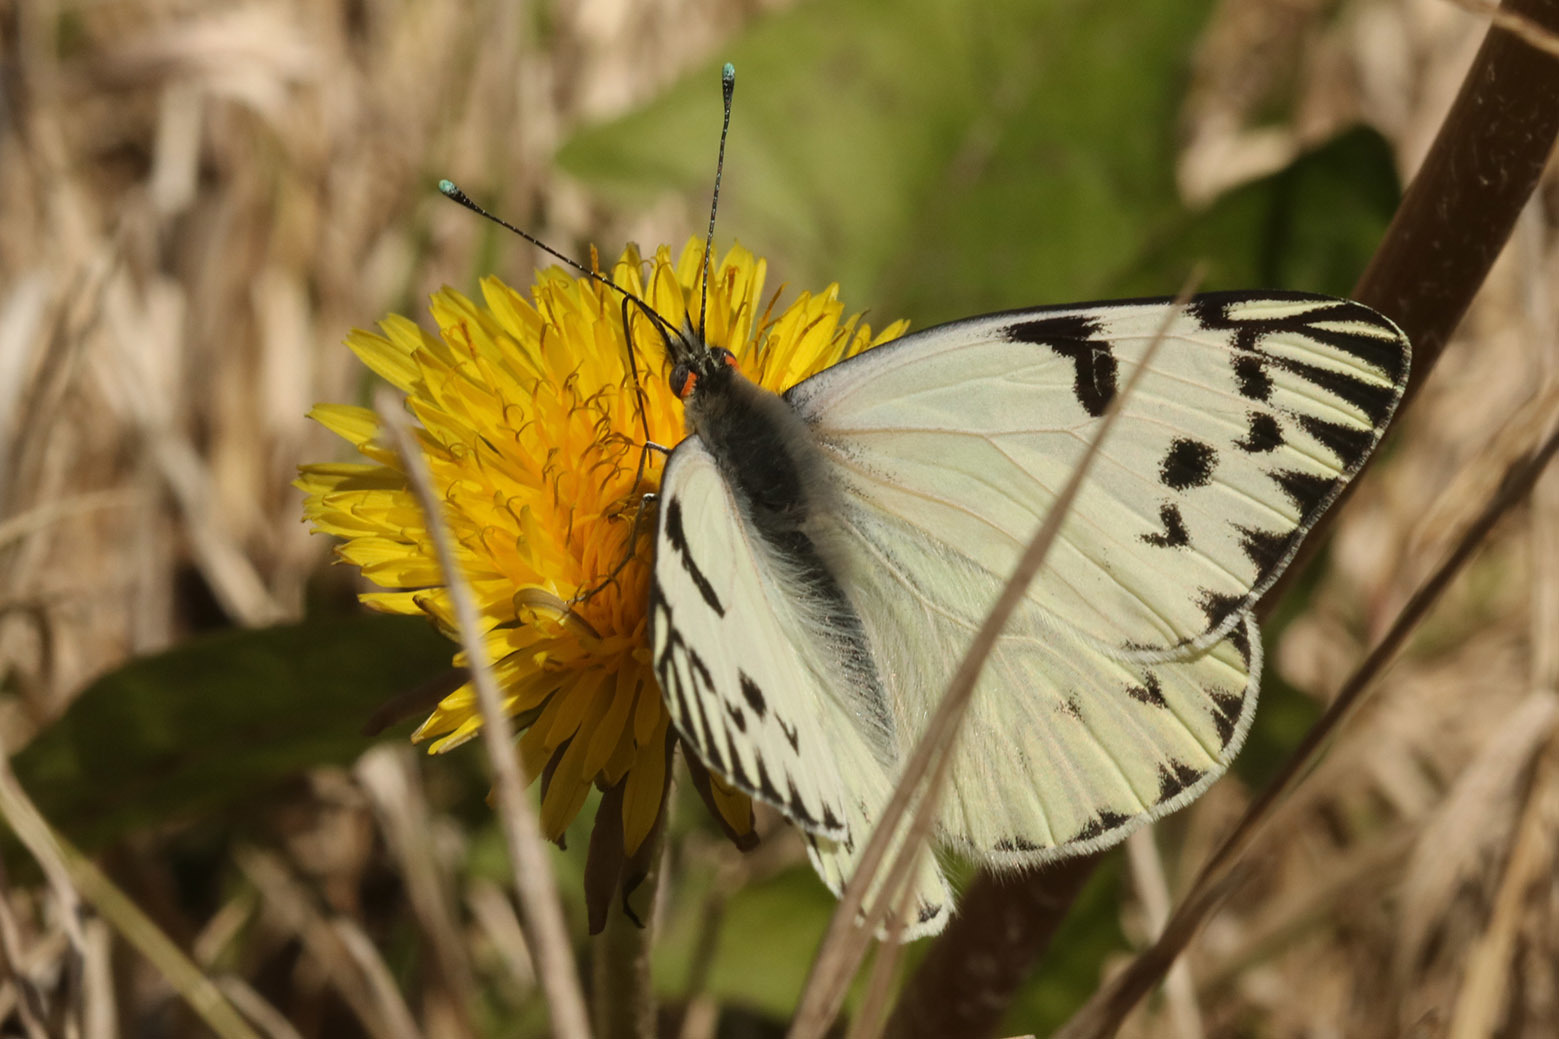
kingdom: Animalia
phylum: Arthropoda
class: Insecta
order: Lepidoptera
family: Pieridae
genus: Tatochila
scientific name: Tatochila autodice
